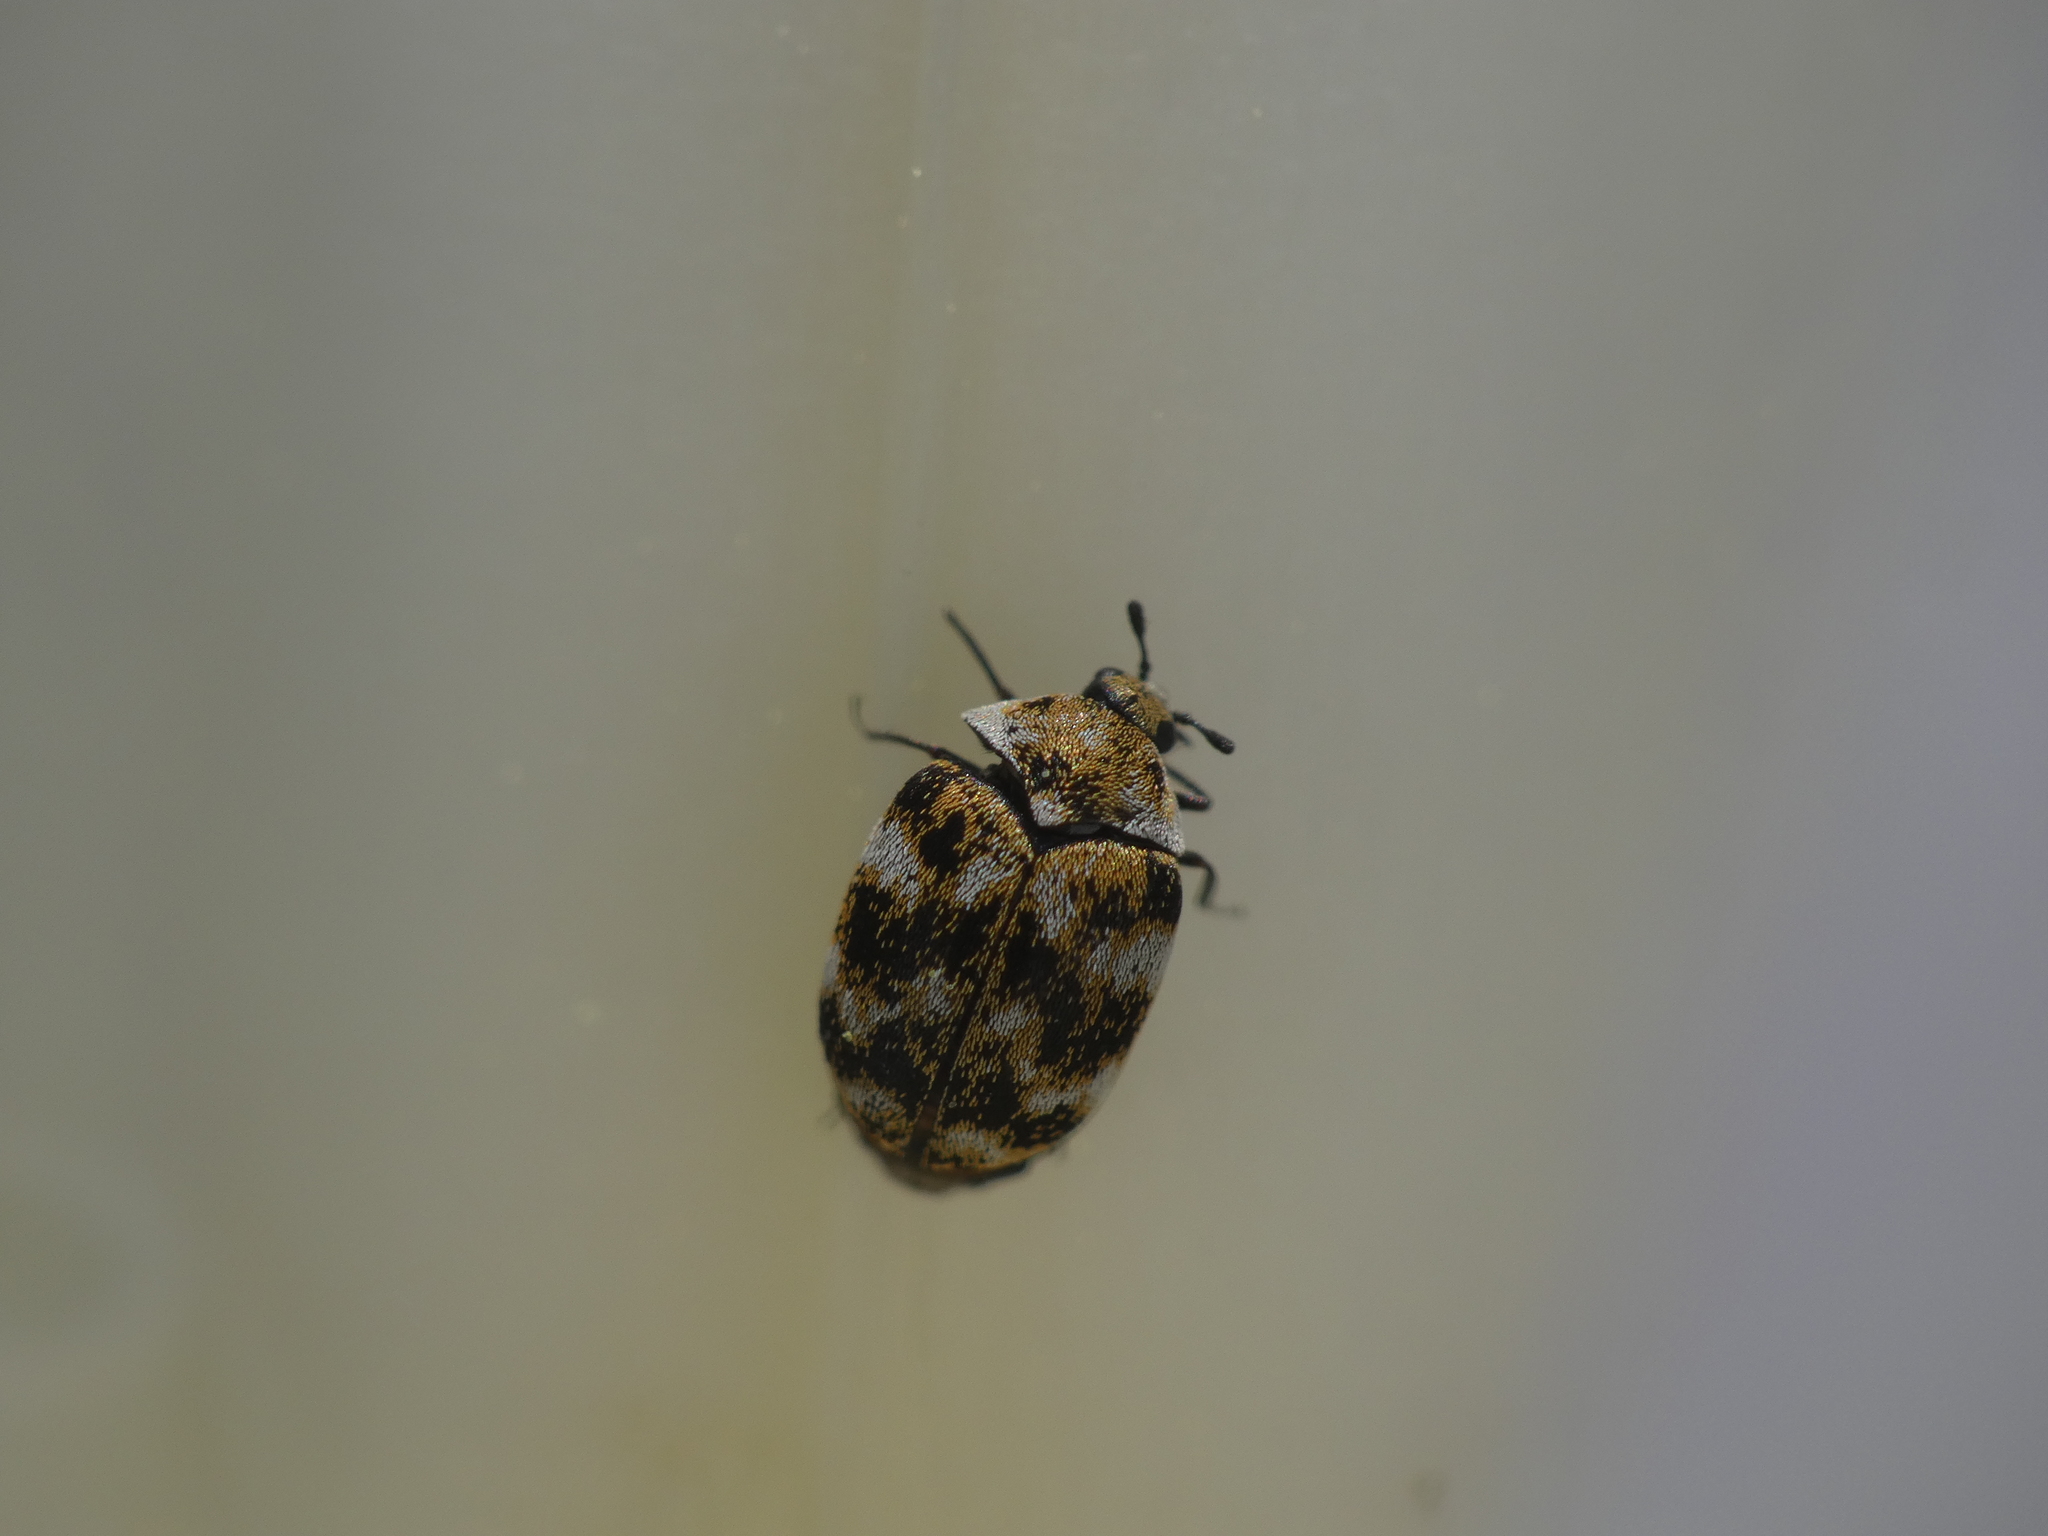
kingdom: Animalia
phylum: Arthropoda
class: Insecta
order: Coleoptera
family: Dermestidae
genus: Anthrenus
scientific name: Anthrenus verbasci
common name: Varied carpet beetle
